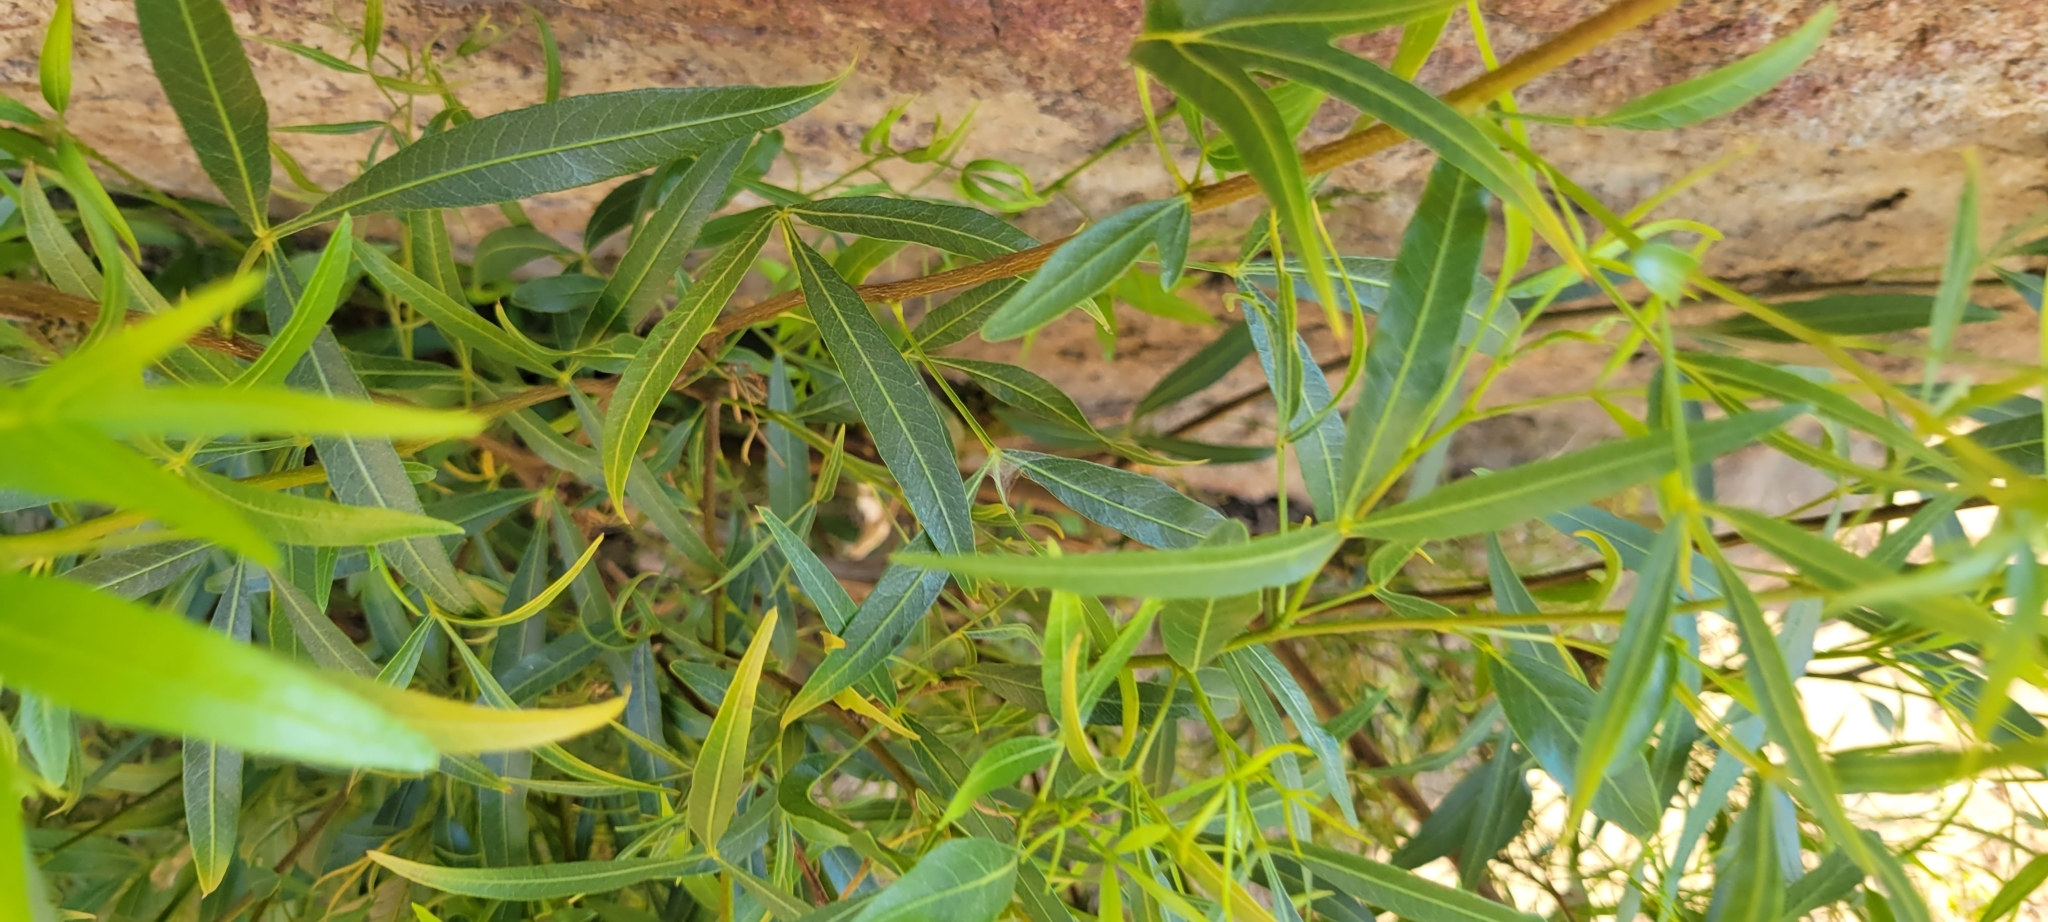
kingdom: Plantae
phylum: Tracheophyta
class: Magnoliopsida
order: Sapindales
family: Anacardiaceae
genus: Searsia
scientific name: Searsia lancea
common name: Cashew
